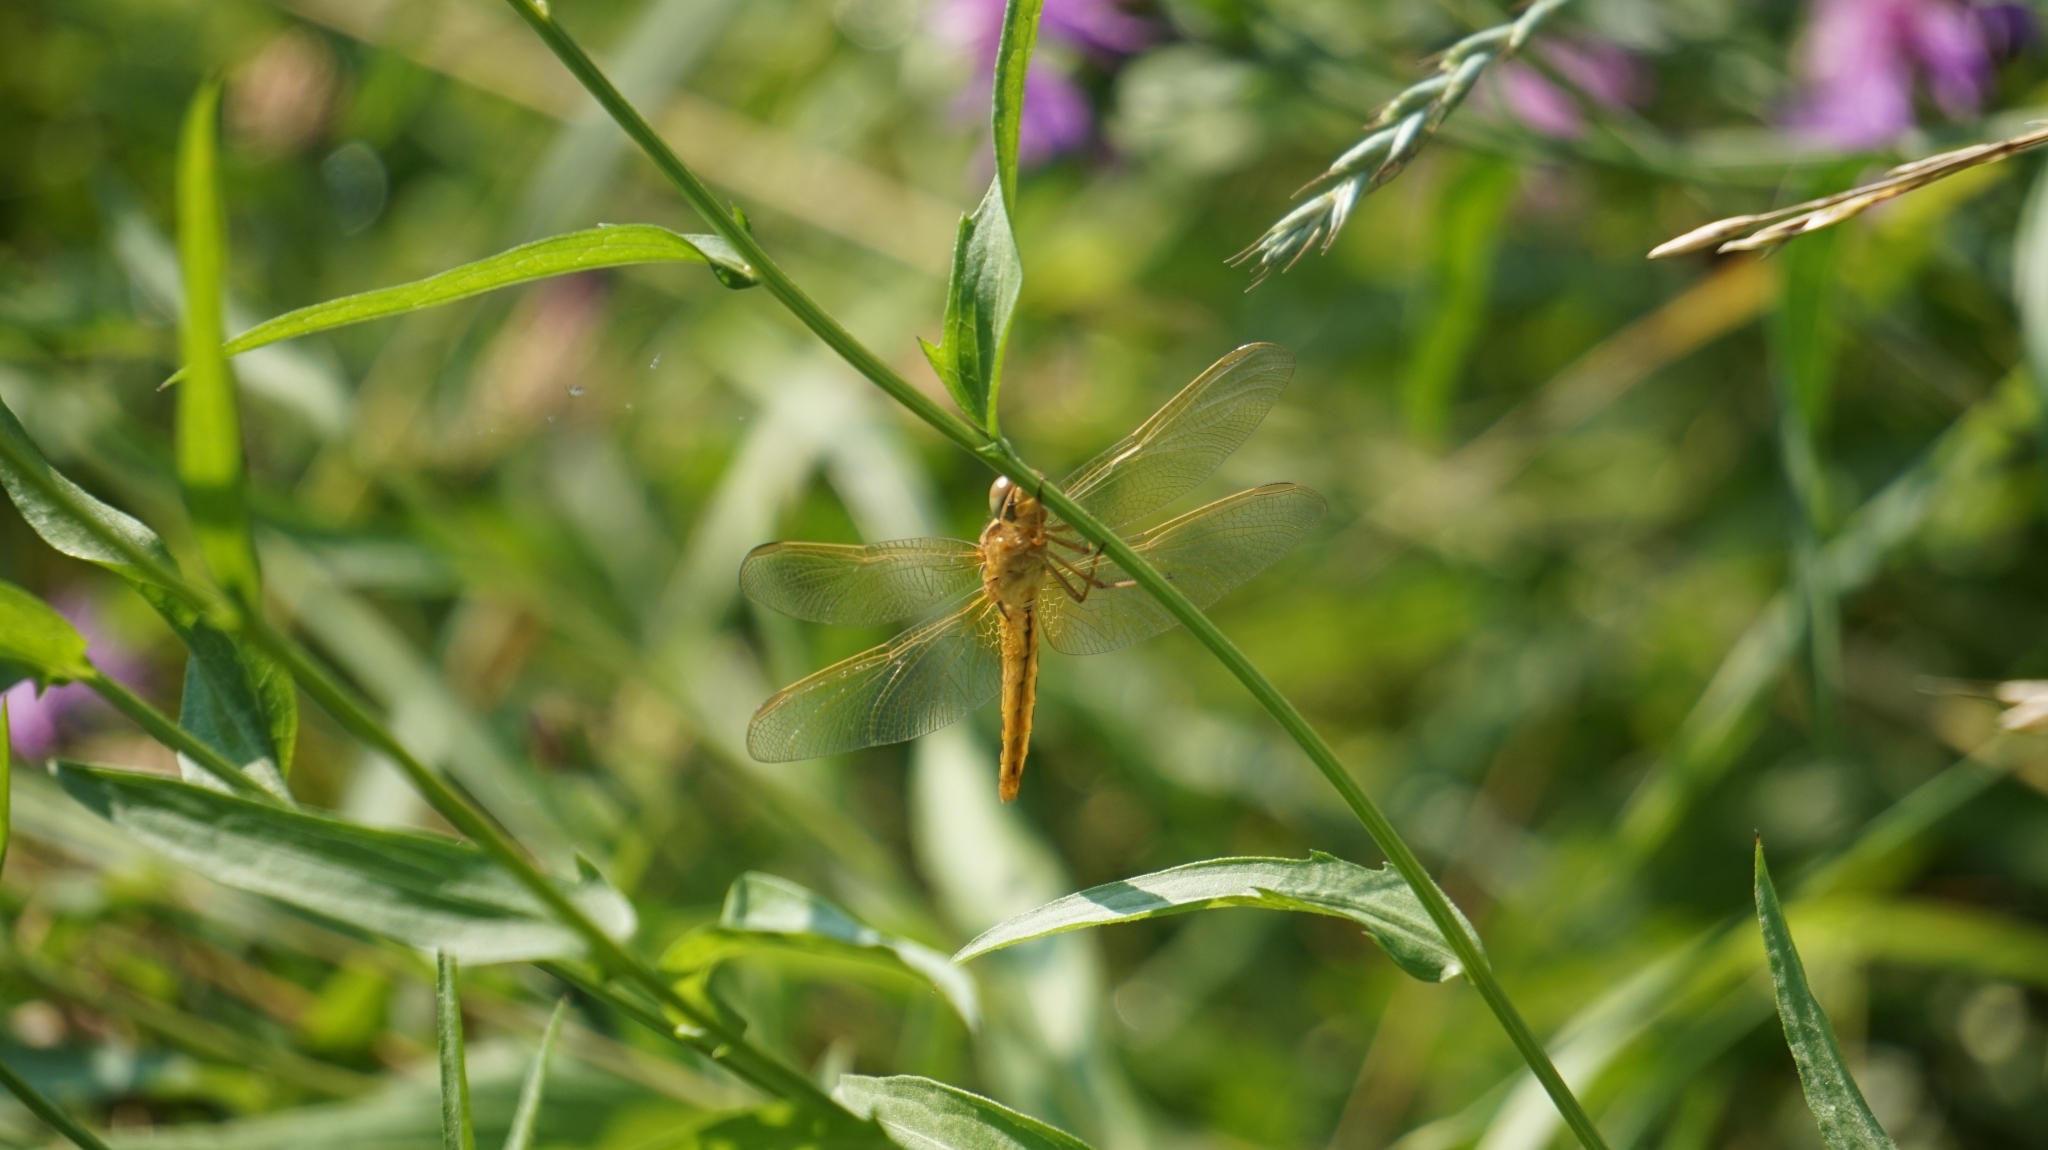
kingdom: Animalia
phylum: Arthropoda
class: Insecta
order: Odonata
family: Libellulidae
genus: Crocothemis
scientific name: Crocothemis erythraea
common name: Scarlet dragonfly
